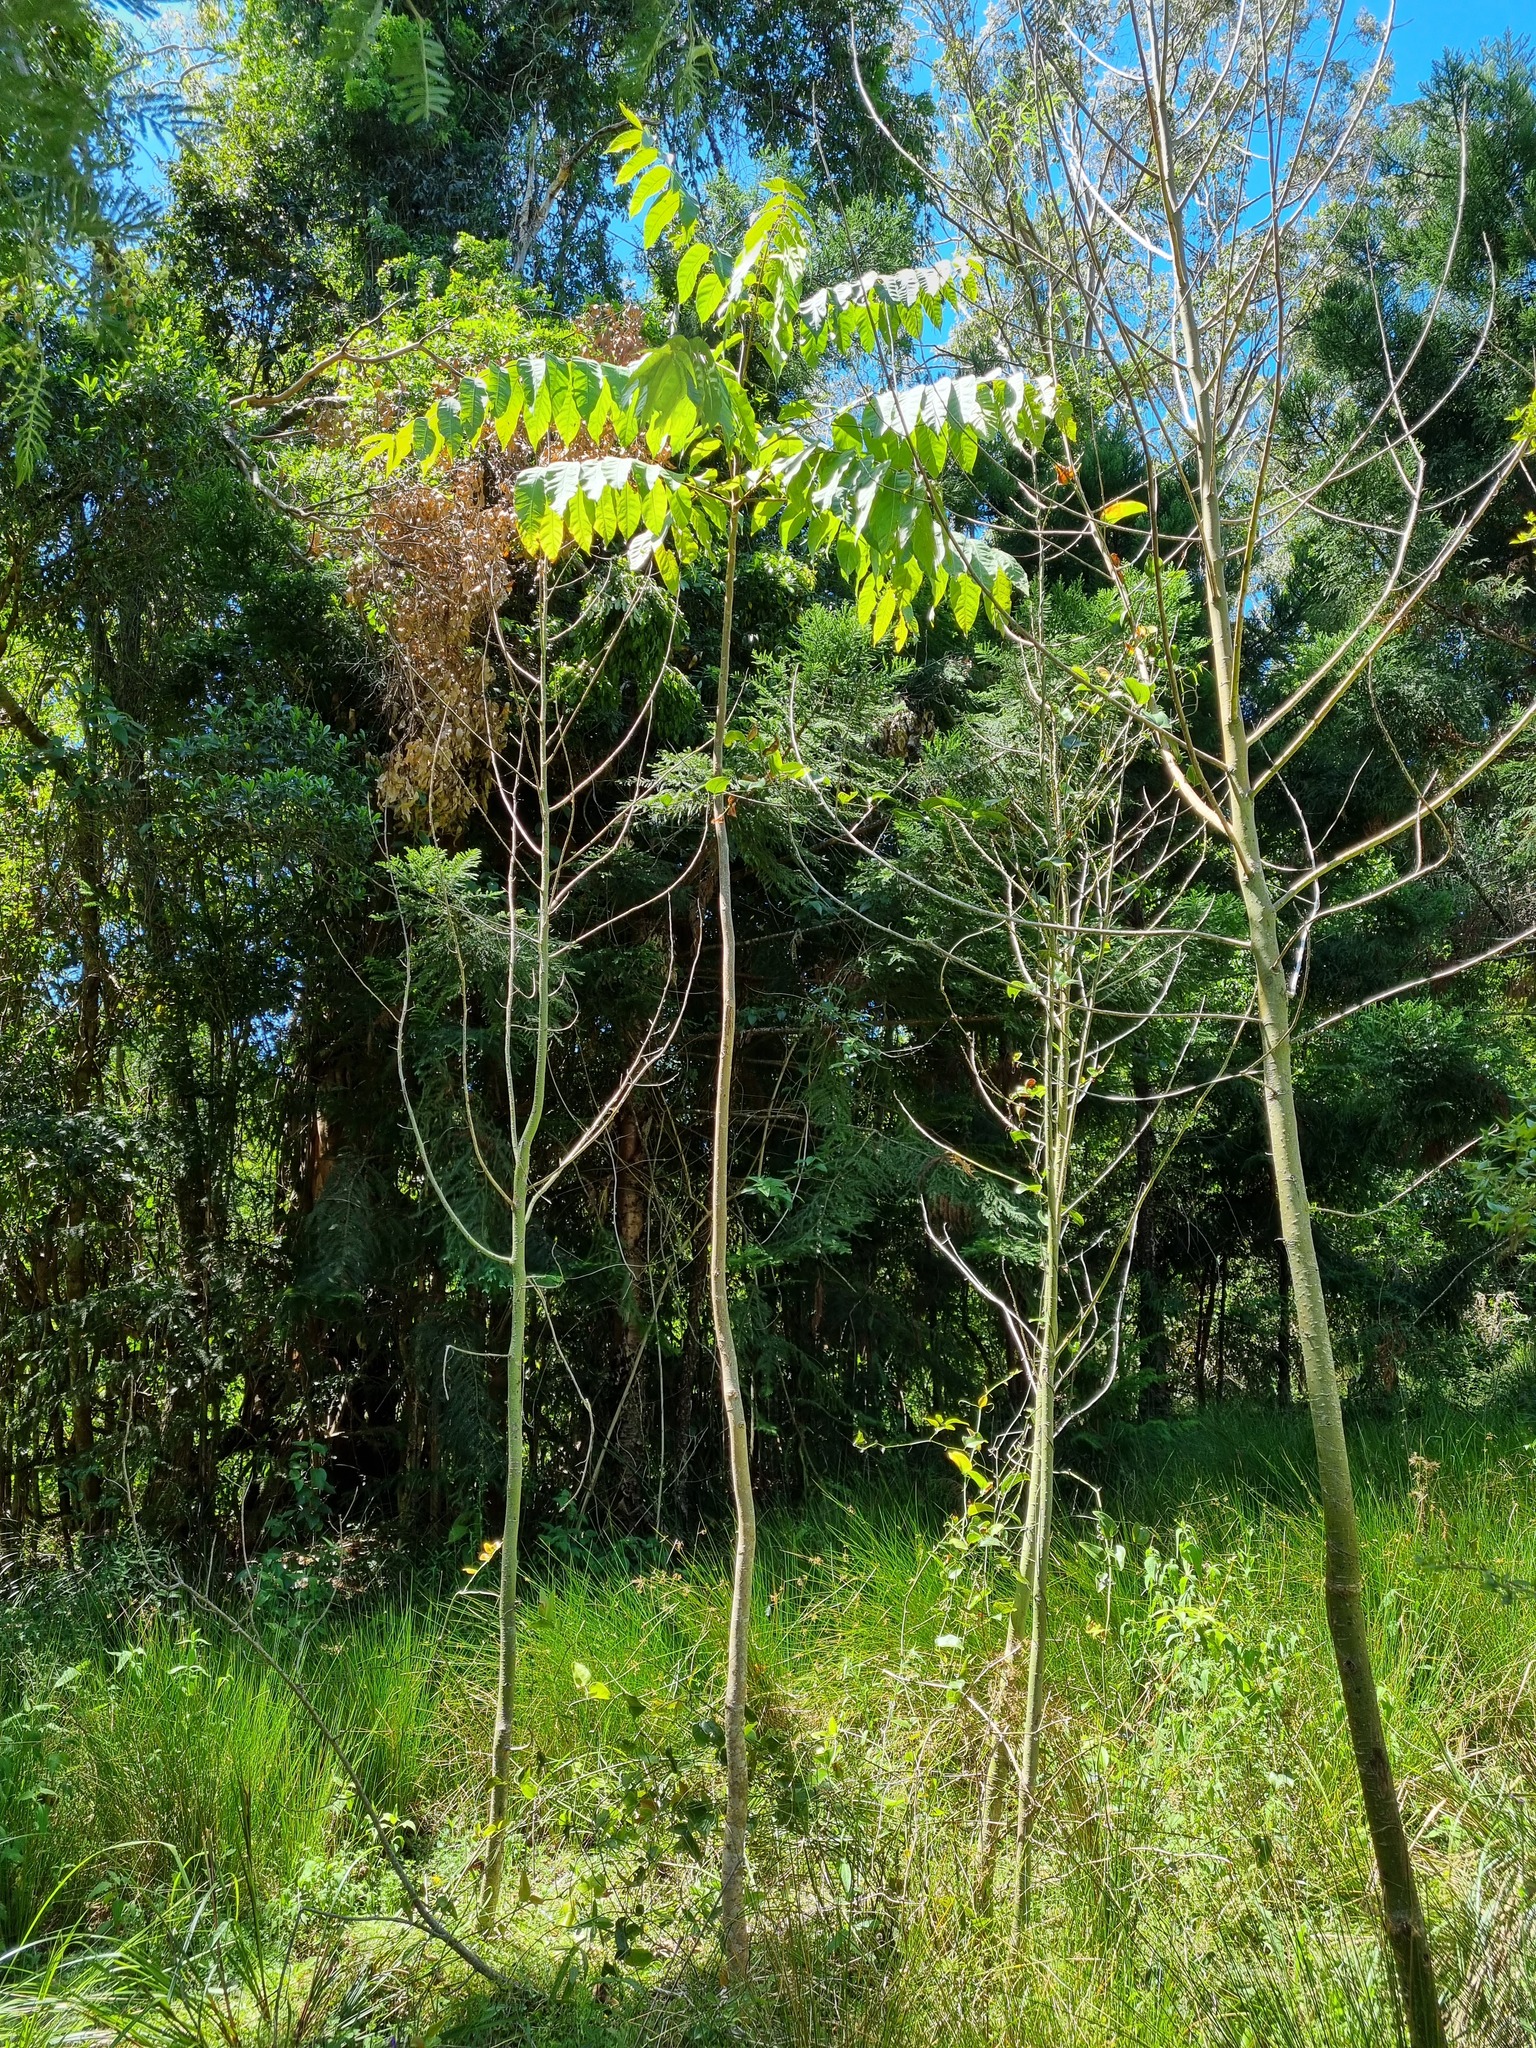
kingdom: Plantae
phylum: Tracheophyta
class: Magnoliopsida
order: Sapindales
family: Meliaceae
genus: Toona
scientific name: Toona ciliata
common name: Australian redcedar
